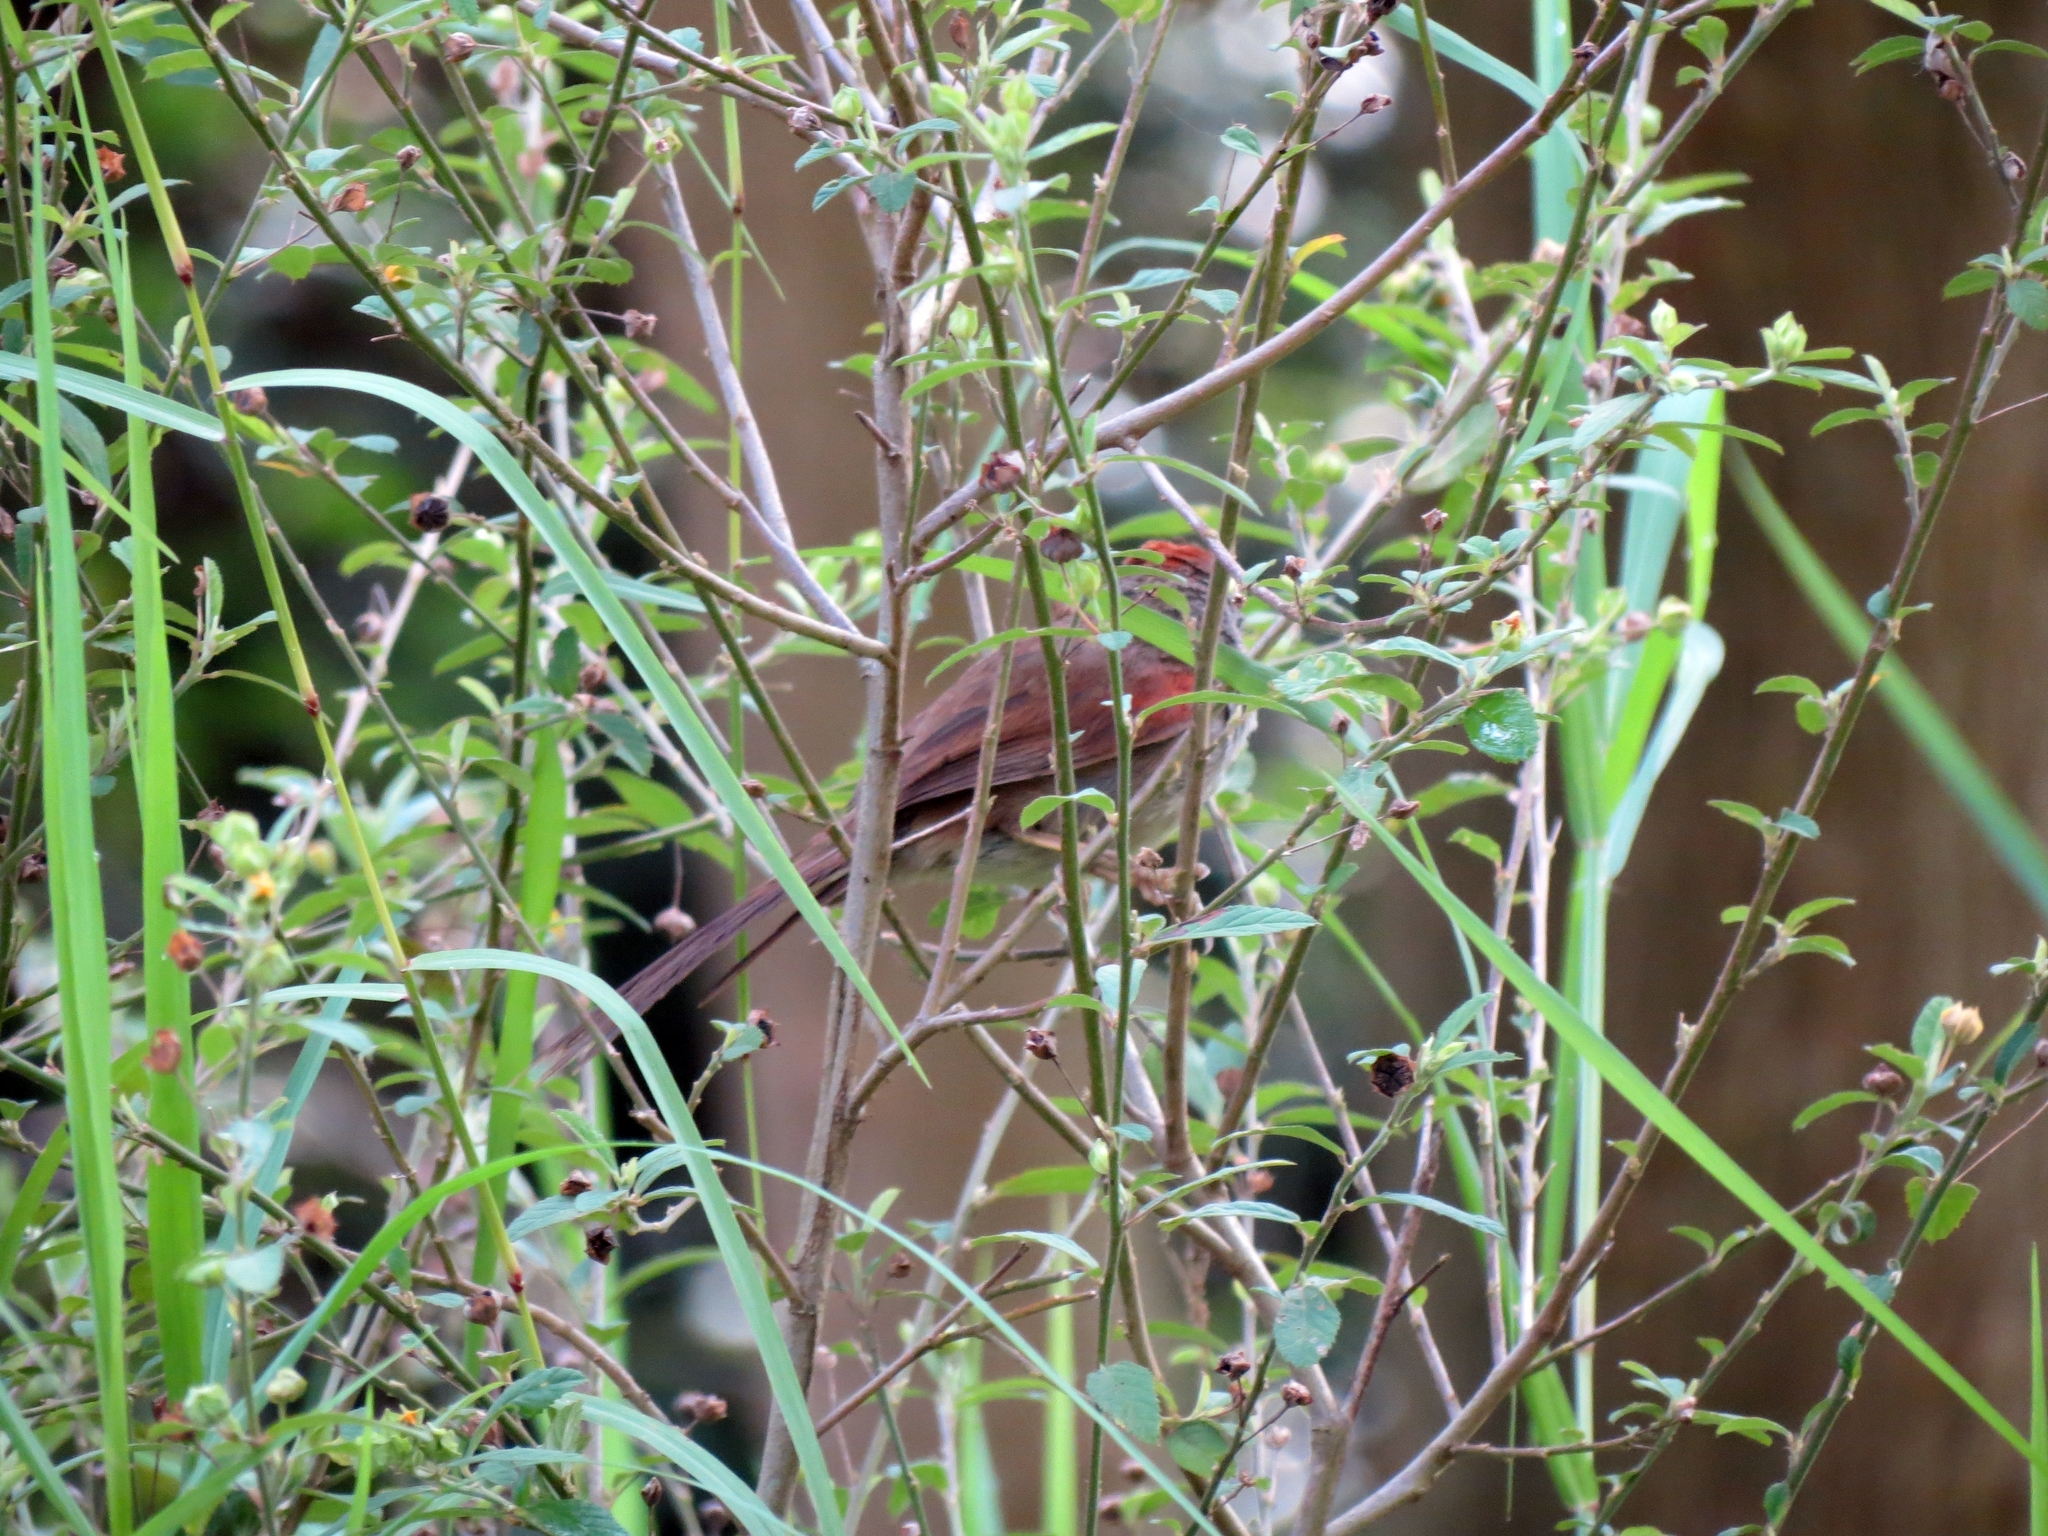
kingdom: Animalia
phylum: Chordata
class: Aves
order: Passeriformes
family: Furnariidae
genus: Synallaxis
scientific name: Synallaxis azarae
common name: Azara's spinetail
